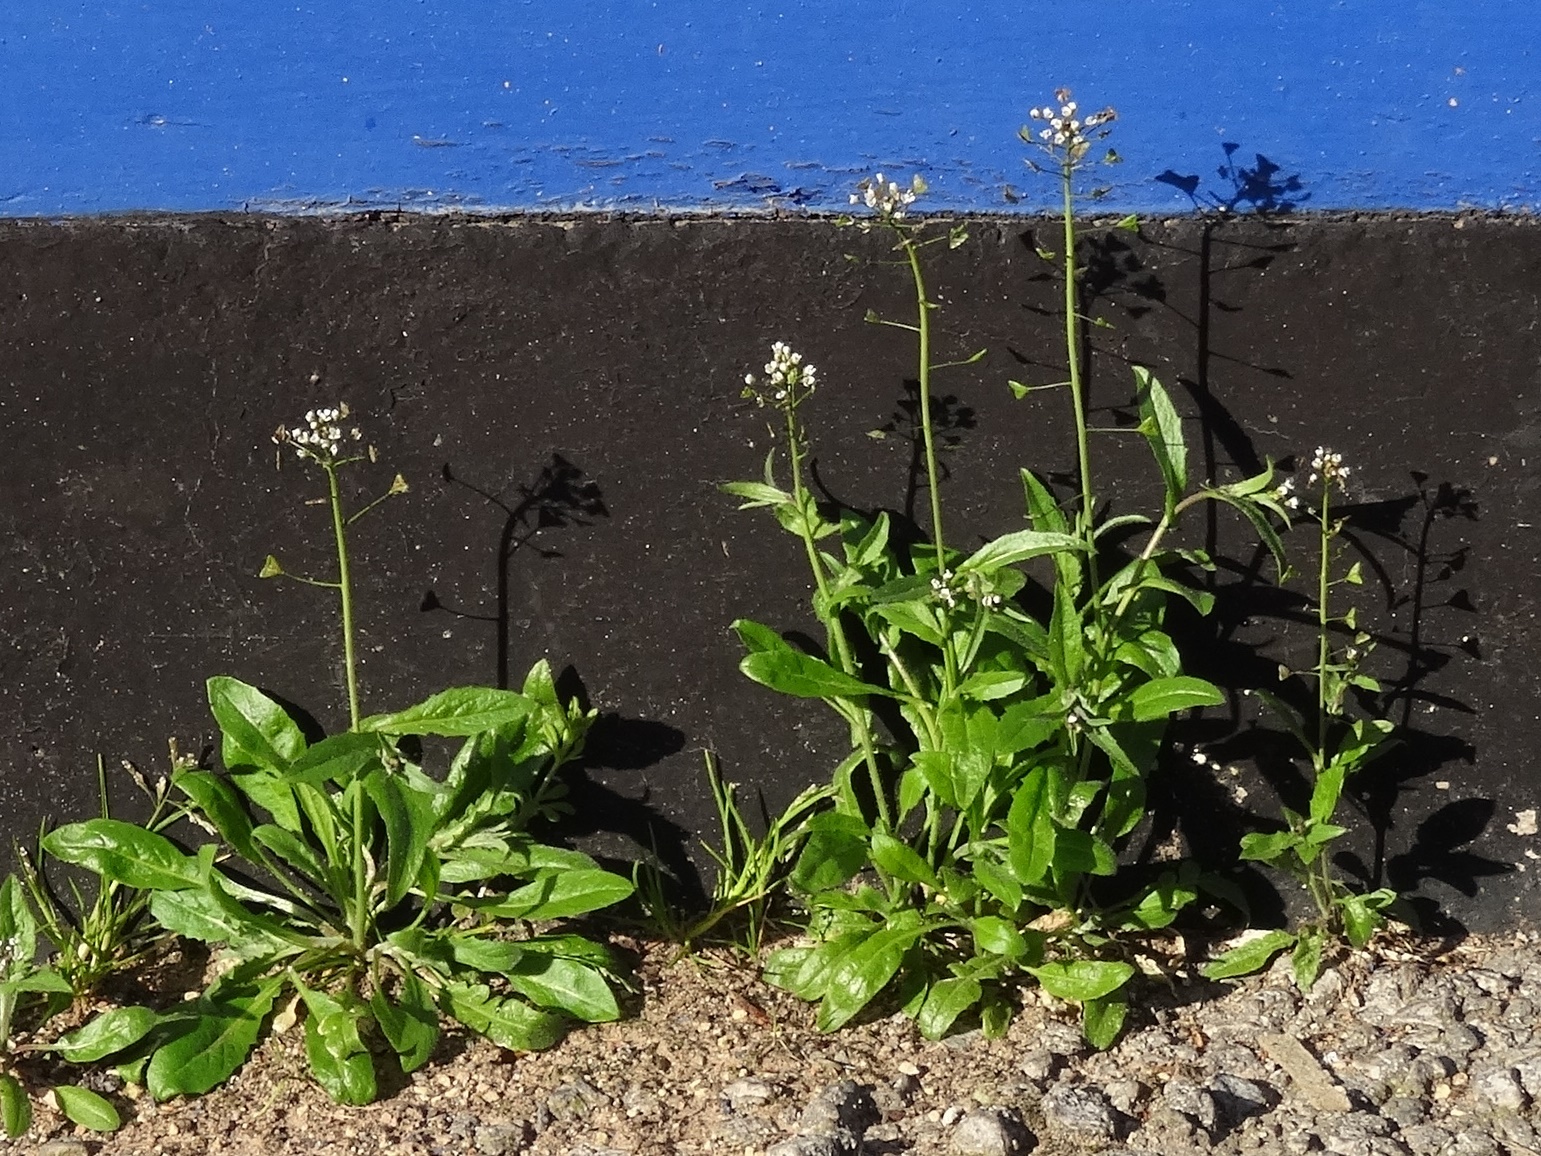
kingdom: Plantae
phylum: Tracheophyta
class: Magnoliopsida
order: Brassicales
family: Brassicaceae
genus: Capsella
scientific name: Capsella bursa-pastoris
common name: Shepherd's purse
